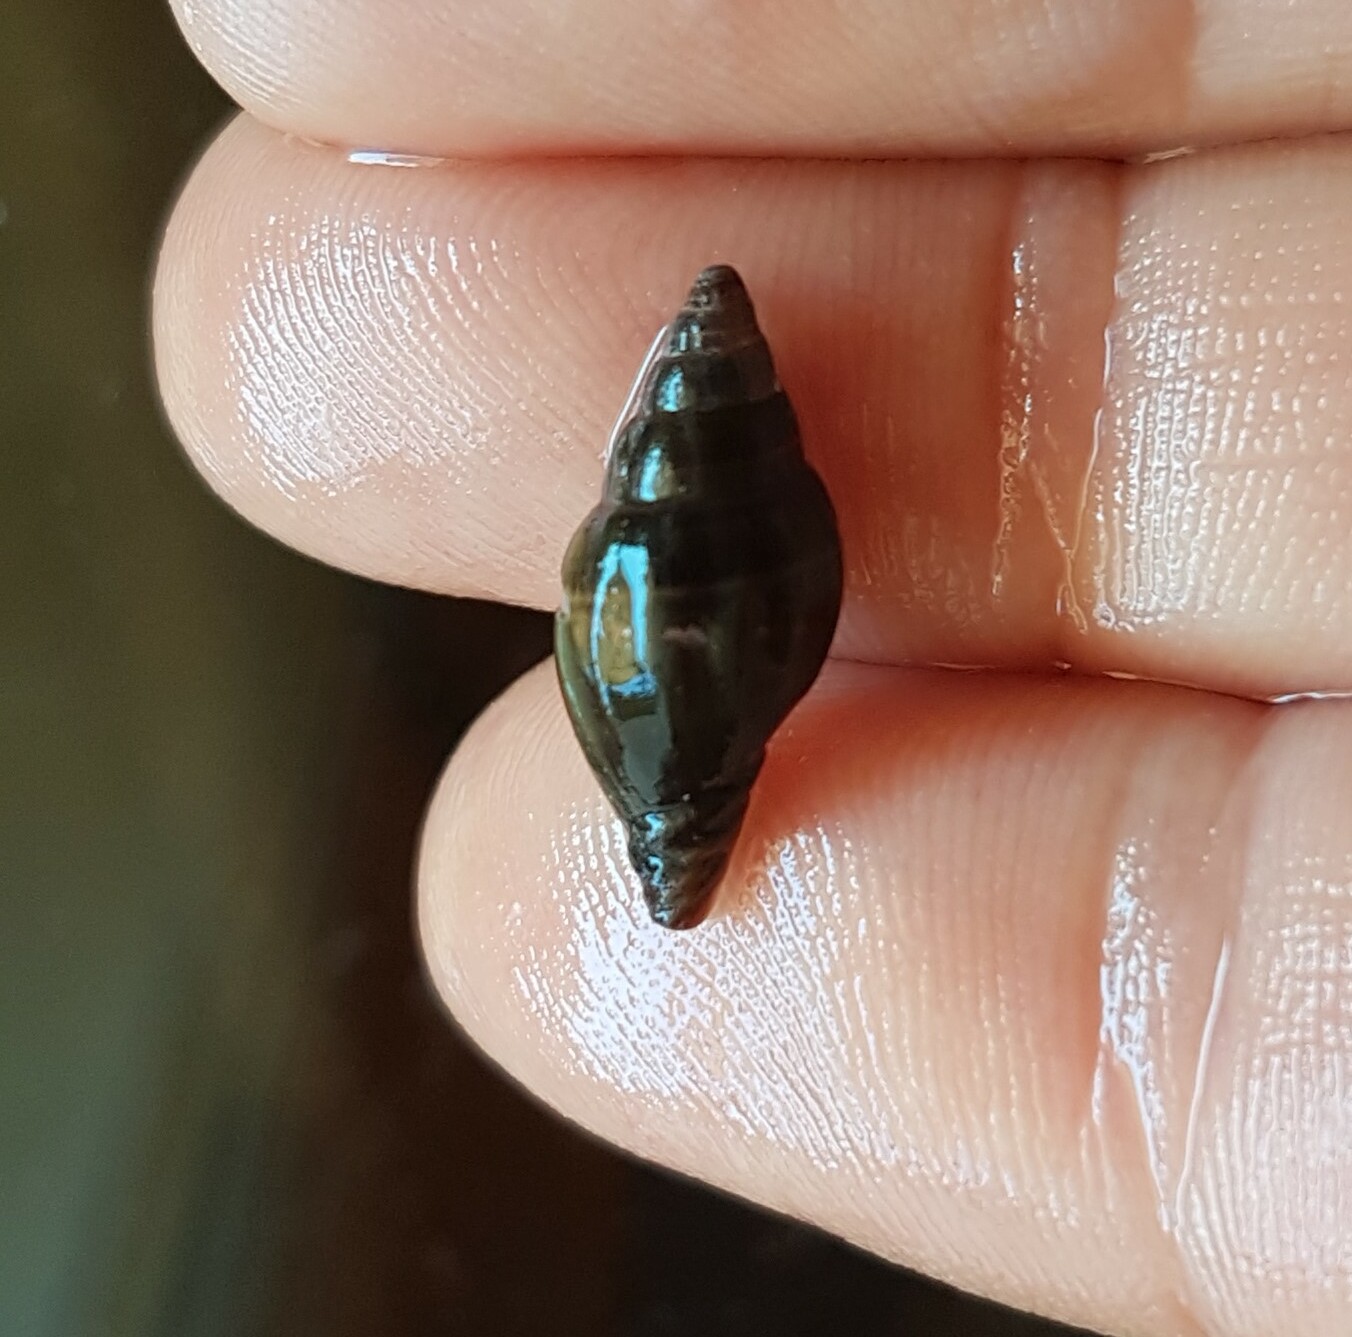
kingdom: Animalia
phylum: Mollusca
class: Gastropoda
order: Neogastropoda
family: Costellariidae
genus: Pusia
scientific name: Pusia ebenus
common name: Brown mitre
